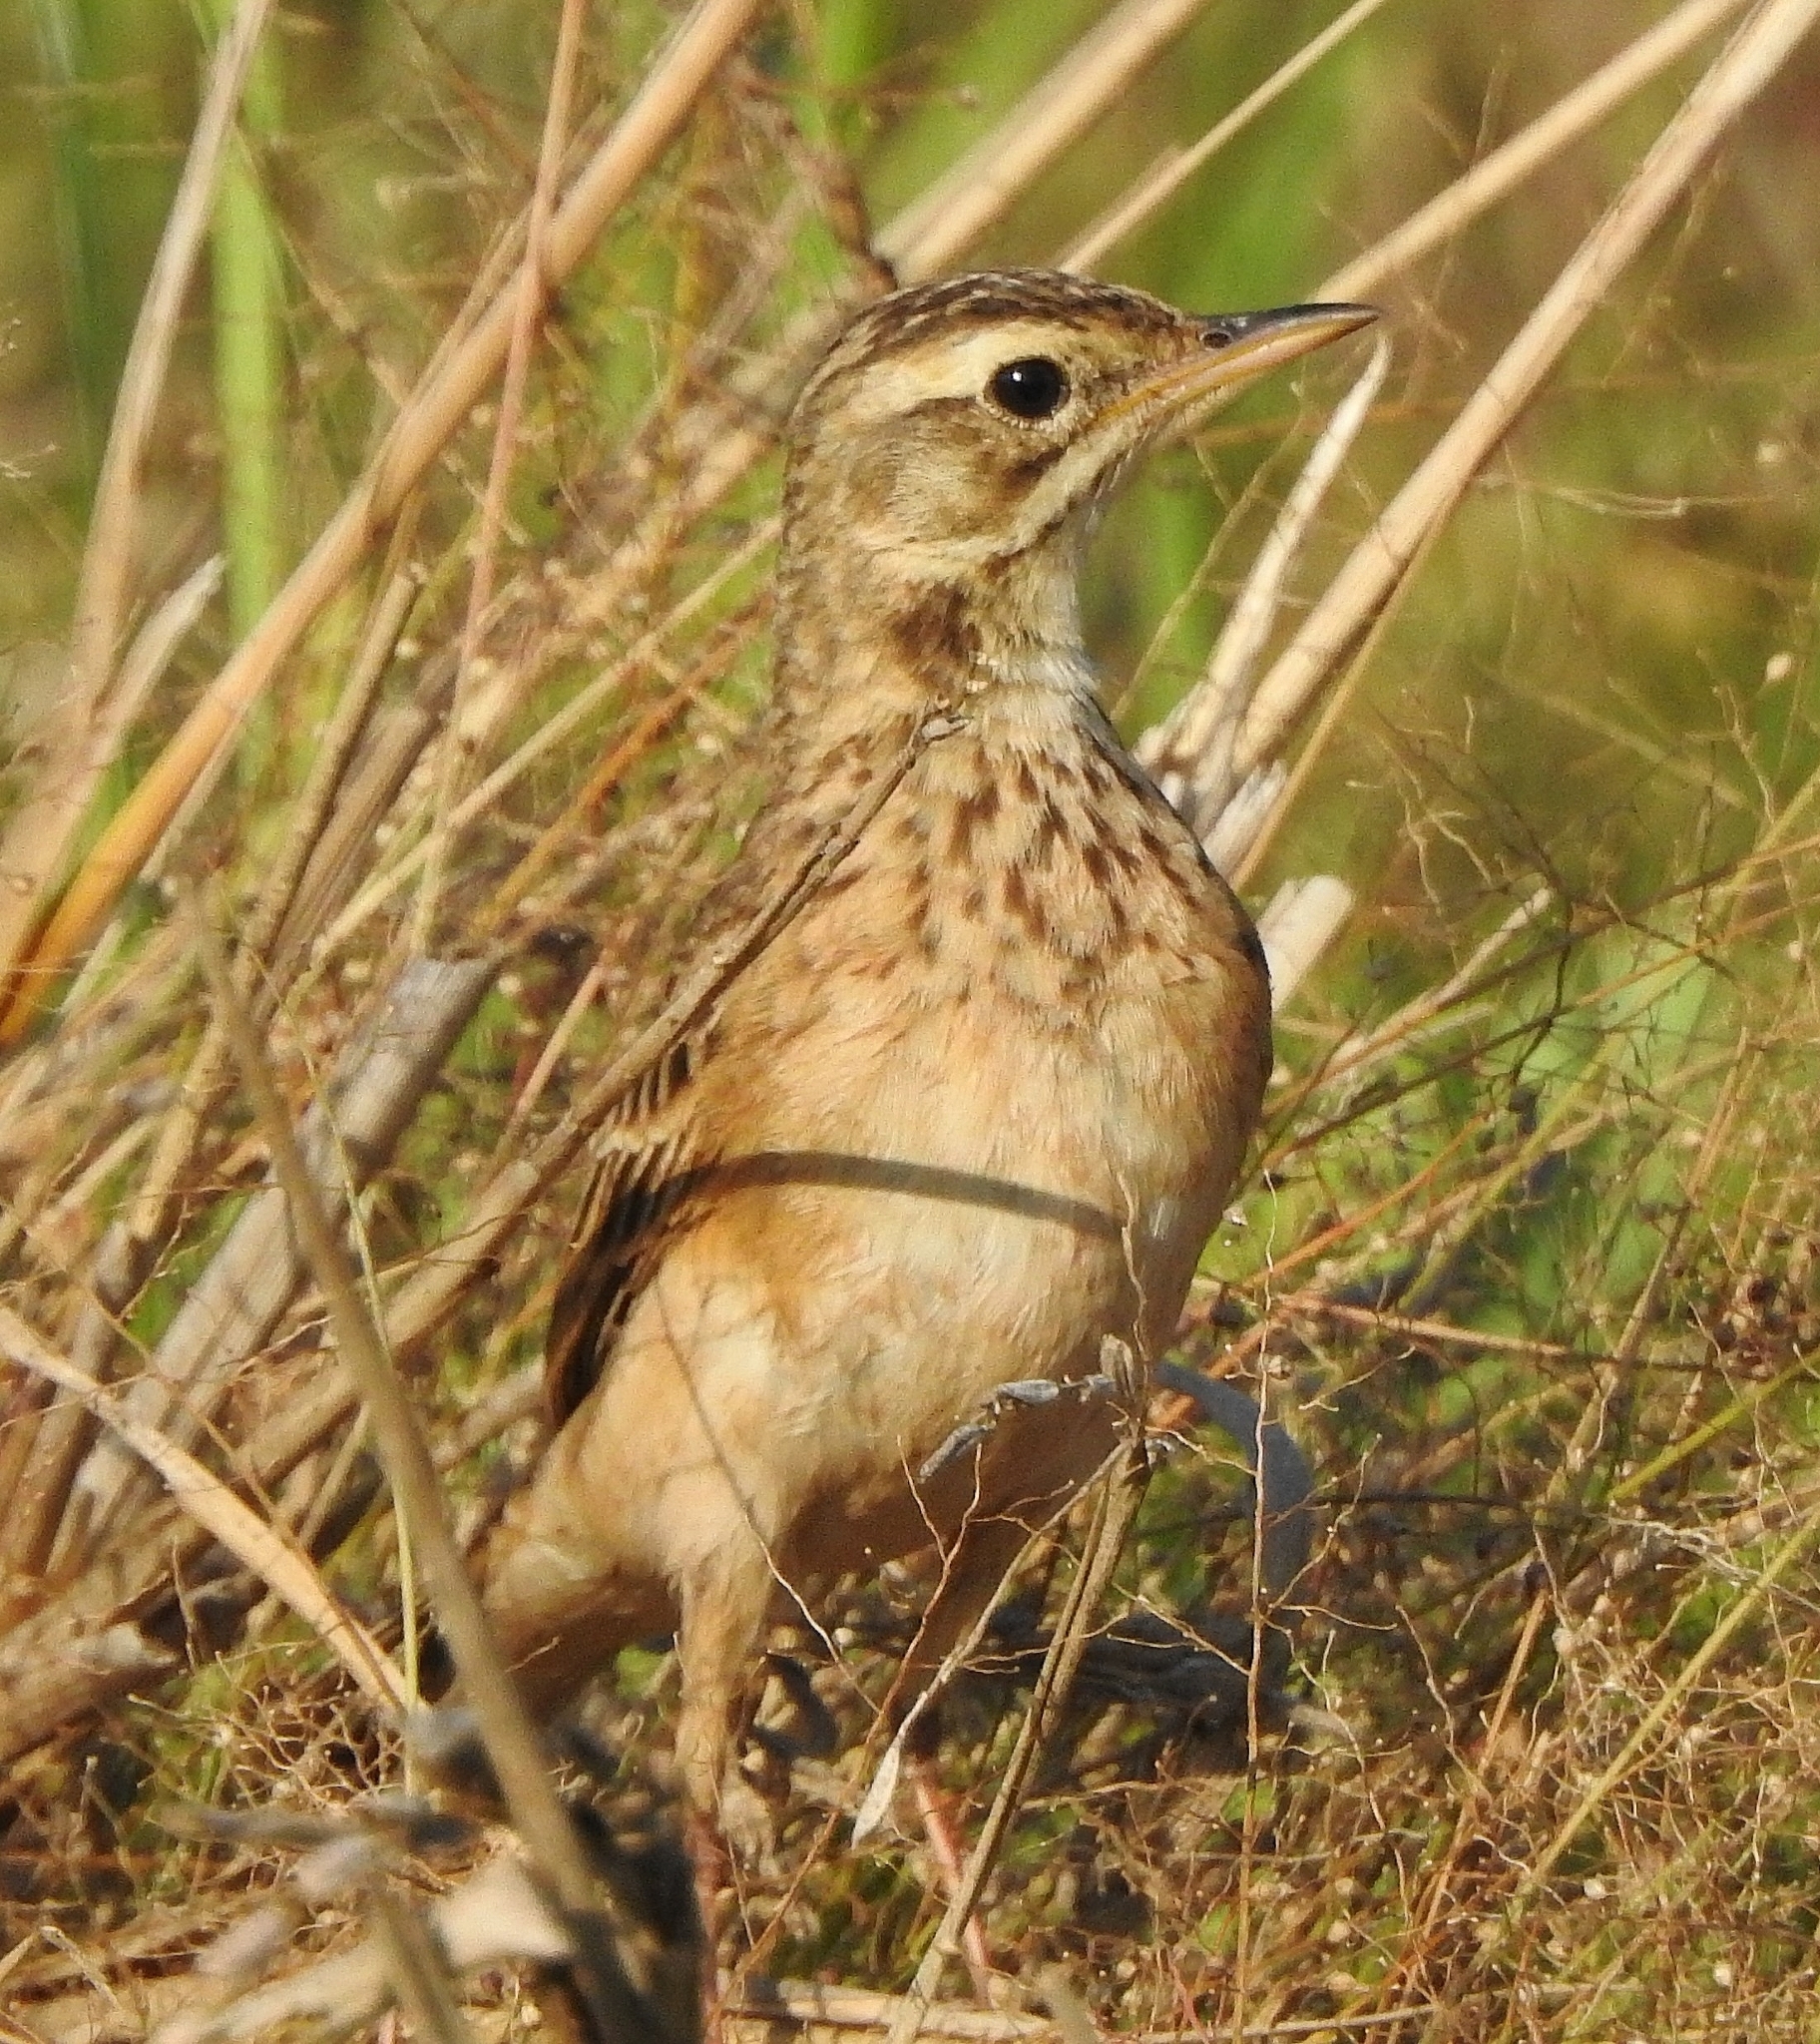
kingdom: Animalia
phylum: Chordata
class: Aves
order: Passeriformes
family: Motacillidae
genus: Anthus
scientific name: Anthus rufulus
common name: Paddyfield pipit
